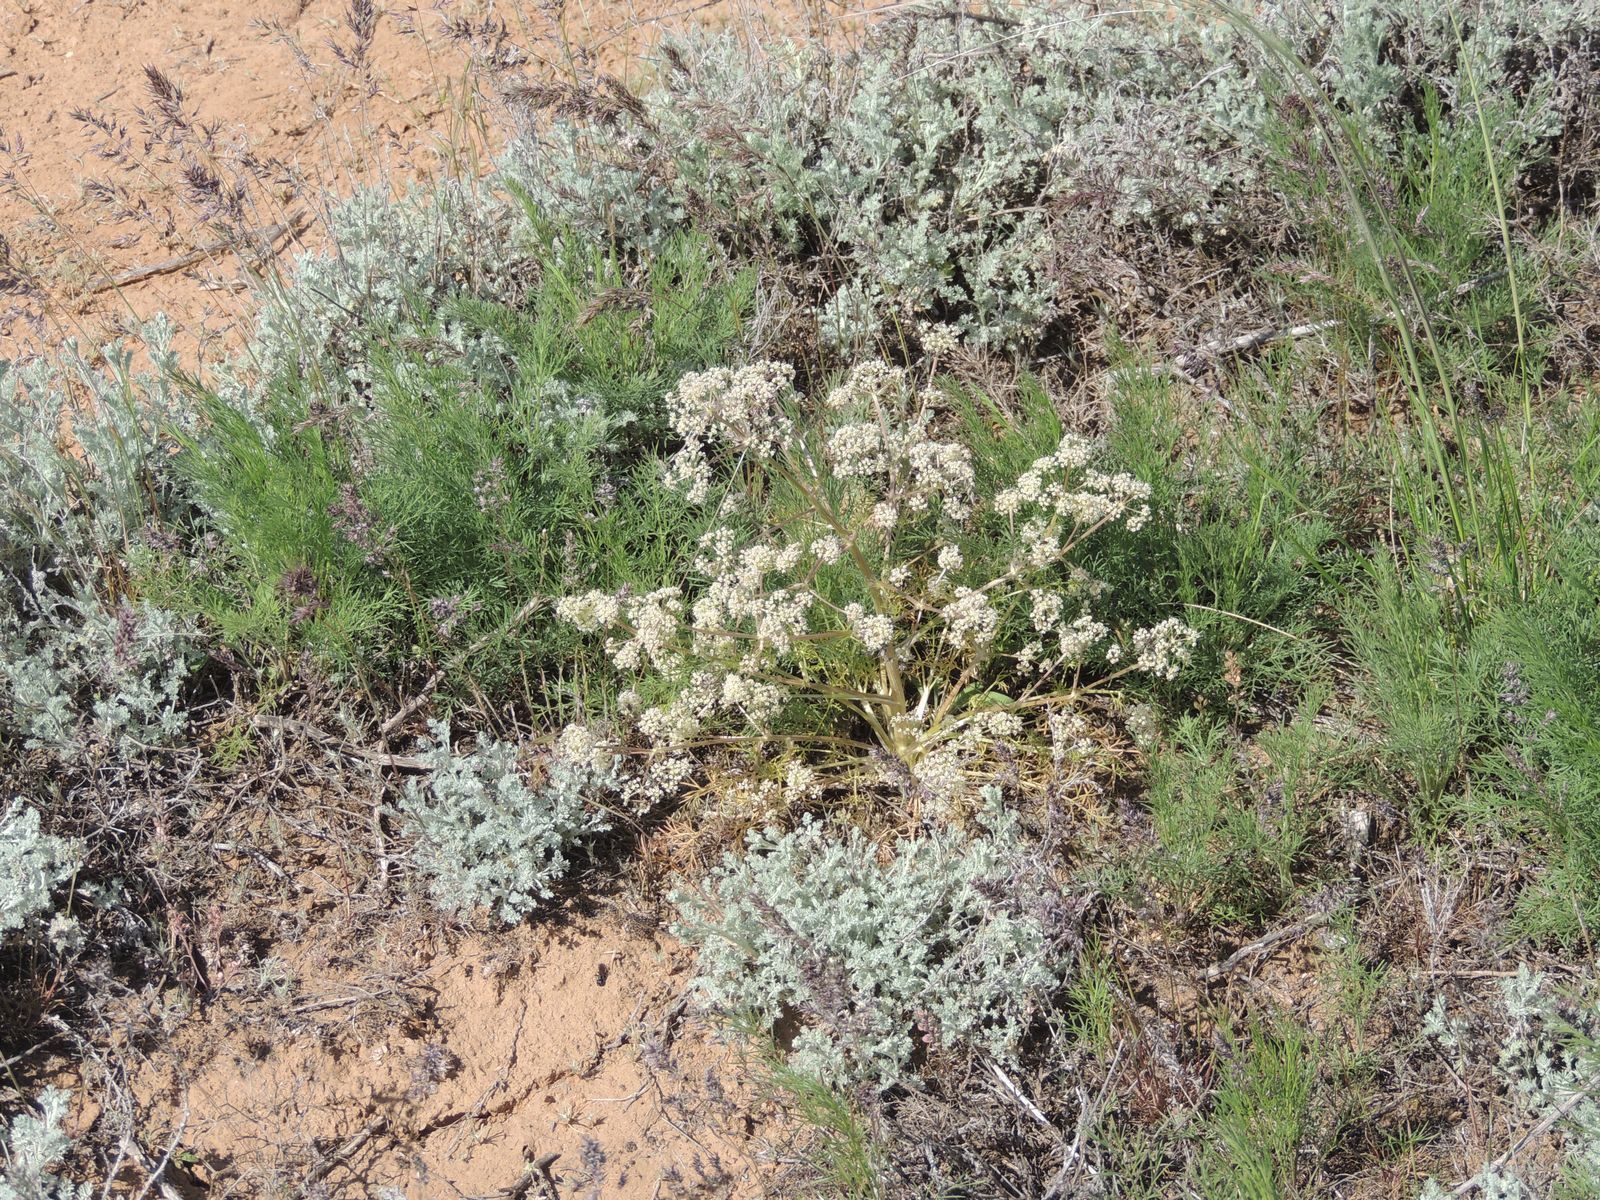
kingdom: Plantae
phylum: Tracheophyta
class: Magnoliopsida
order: Apiales
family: Apiaceae
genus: Trinia
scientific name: Trinia hispida
